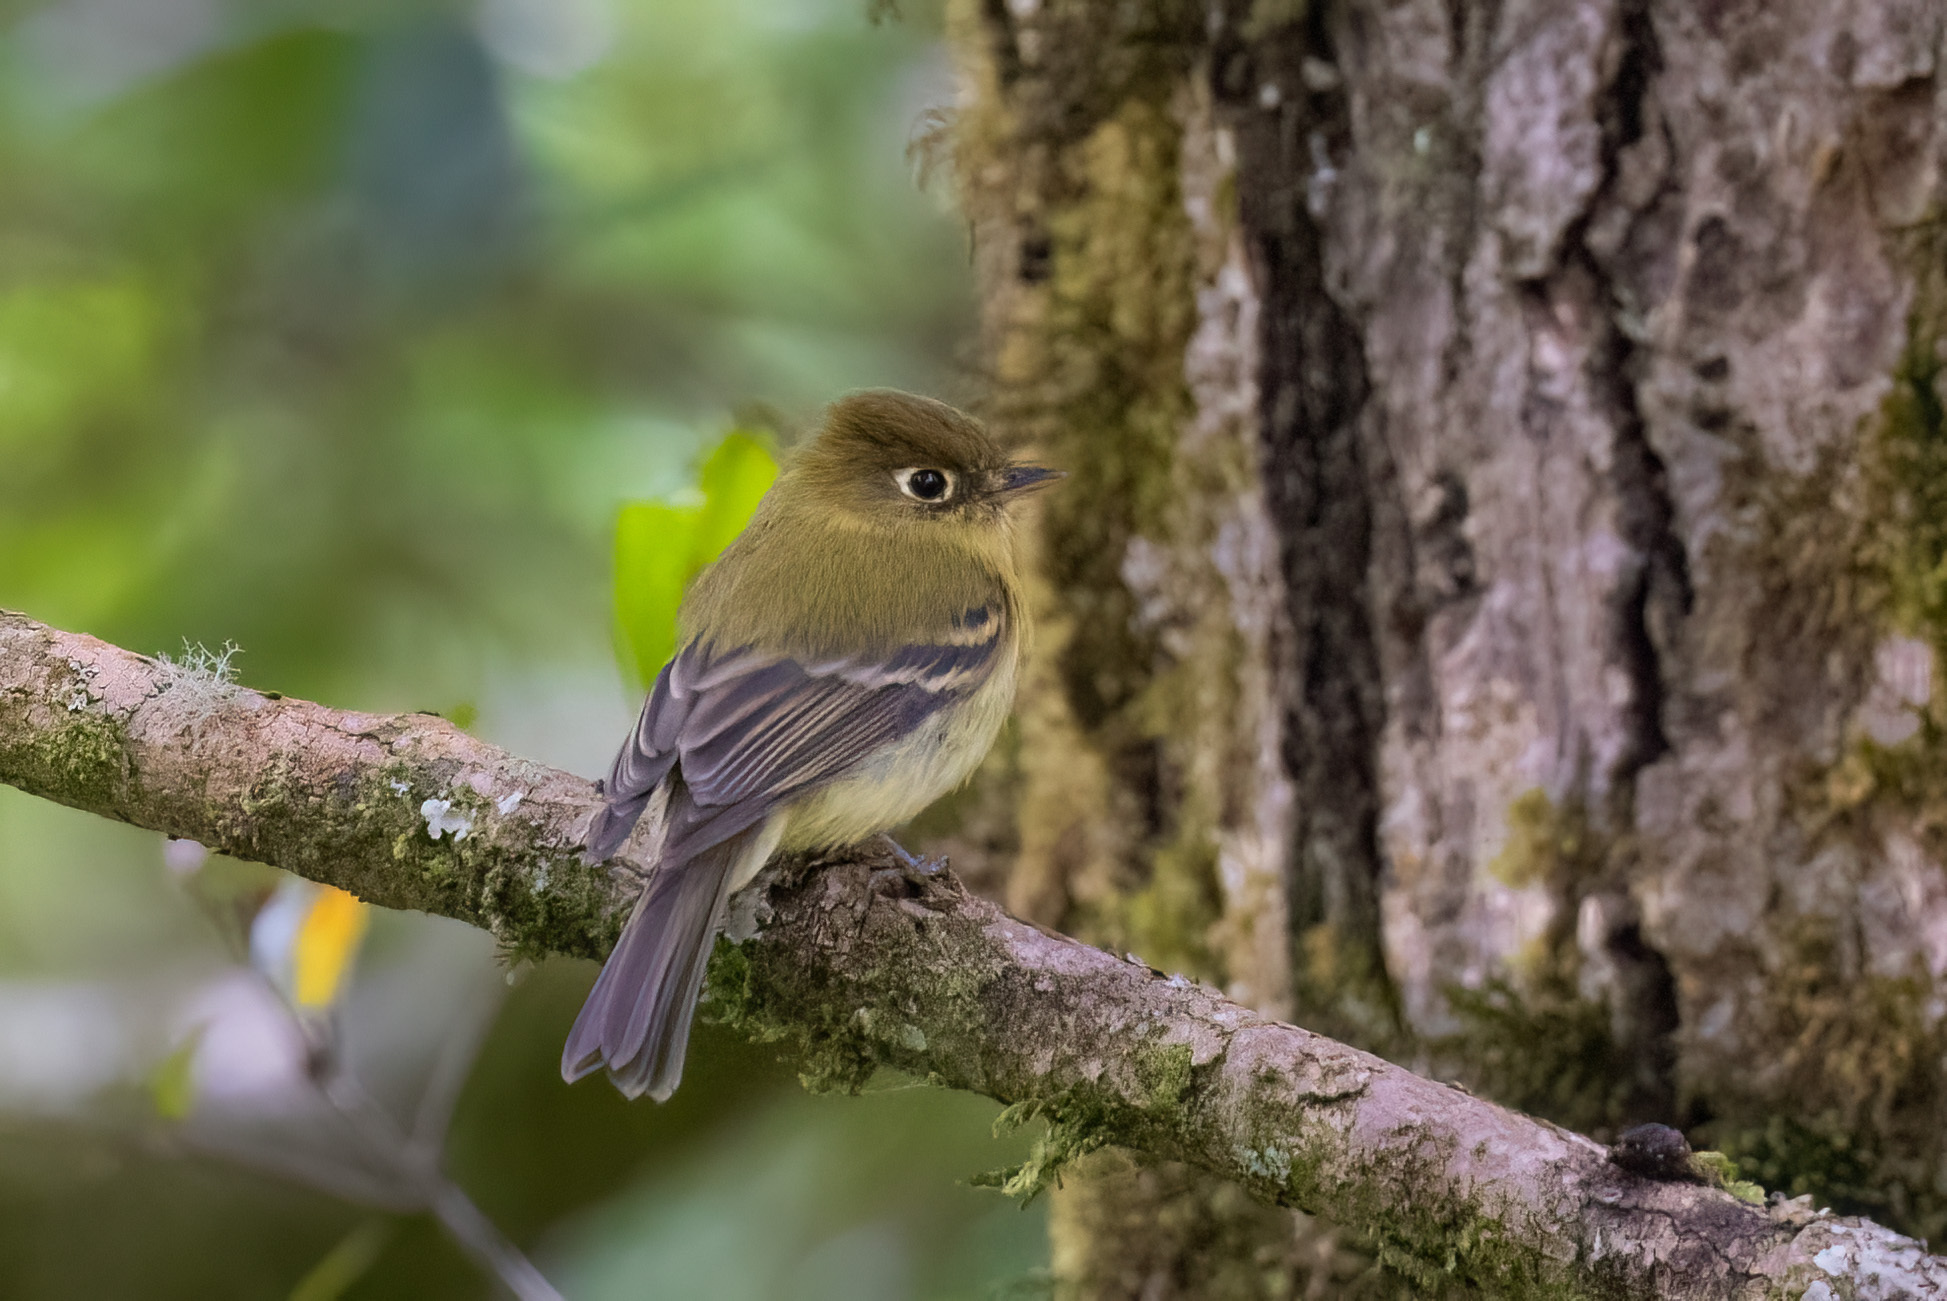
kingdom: Animalia
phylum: Chordata
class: Aves
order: Passeriformes
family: Tyrannidae
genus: Empidonax
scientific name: Empidonax flavescens
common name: Yellowish flycatcher
